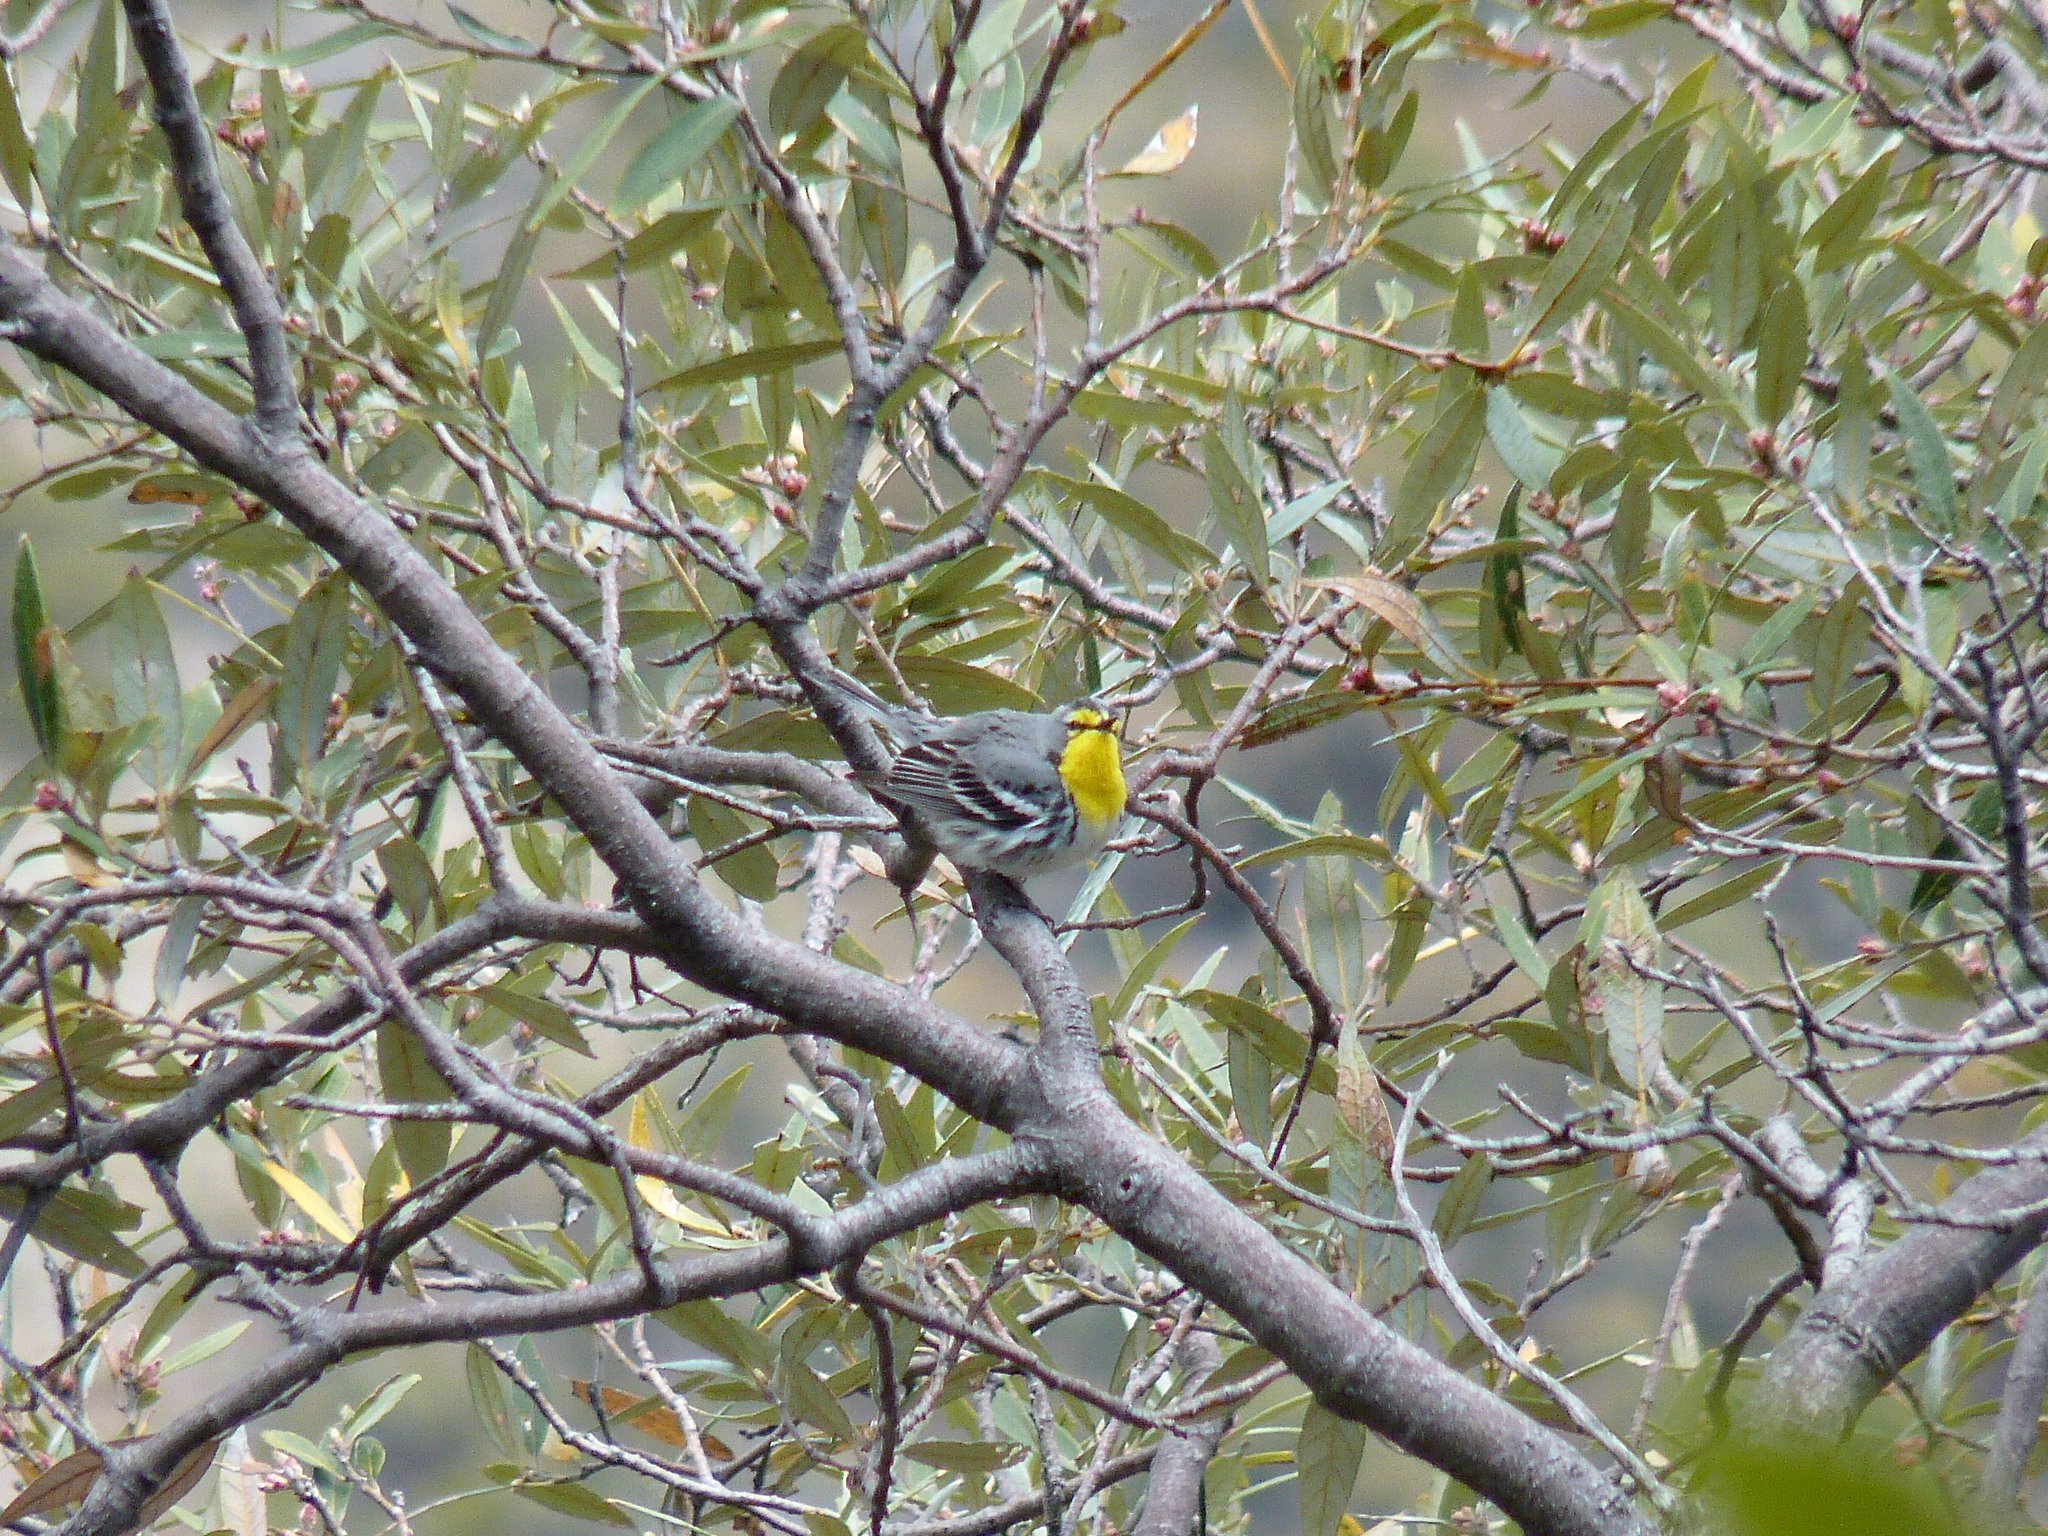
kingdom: Animalia
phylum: Chordata
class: Aves
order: Passeriformes
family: Parulidae
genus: Setophaga
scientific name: Setophaga graciae
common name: Grace's warbler
